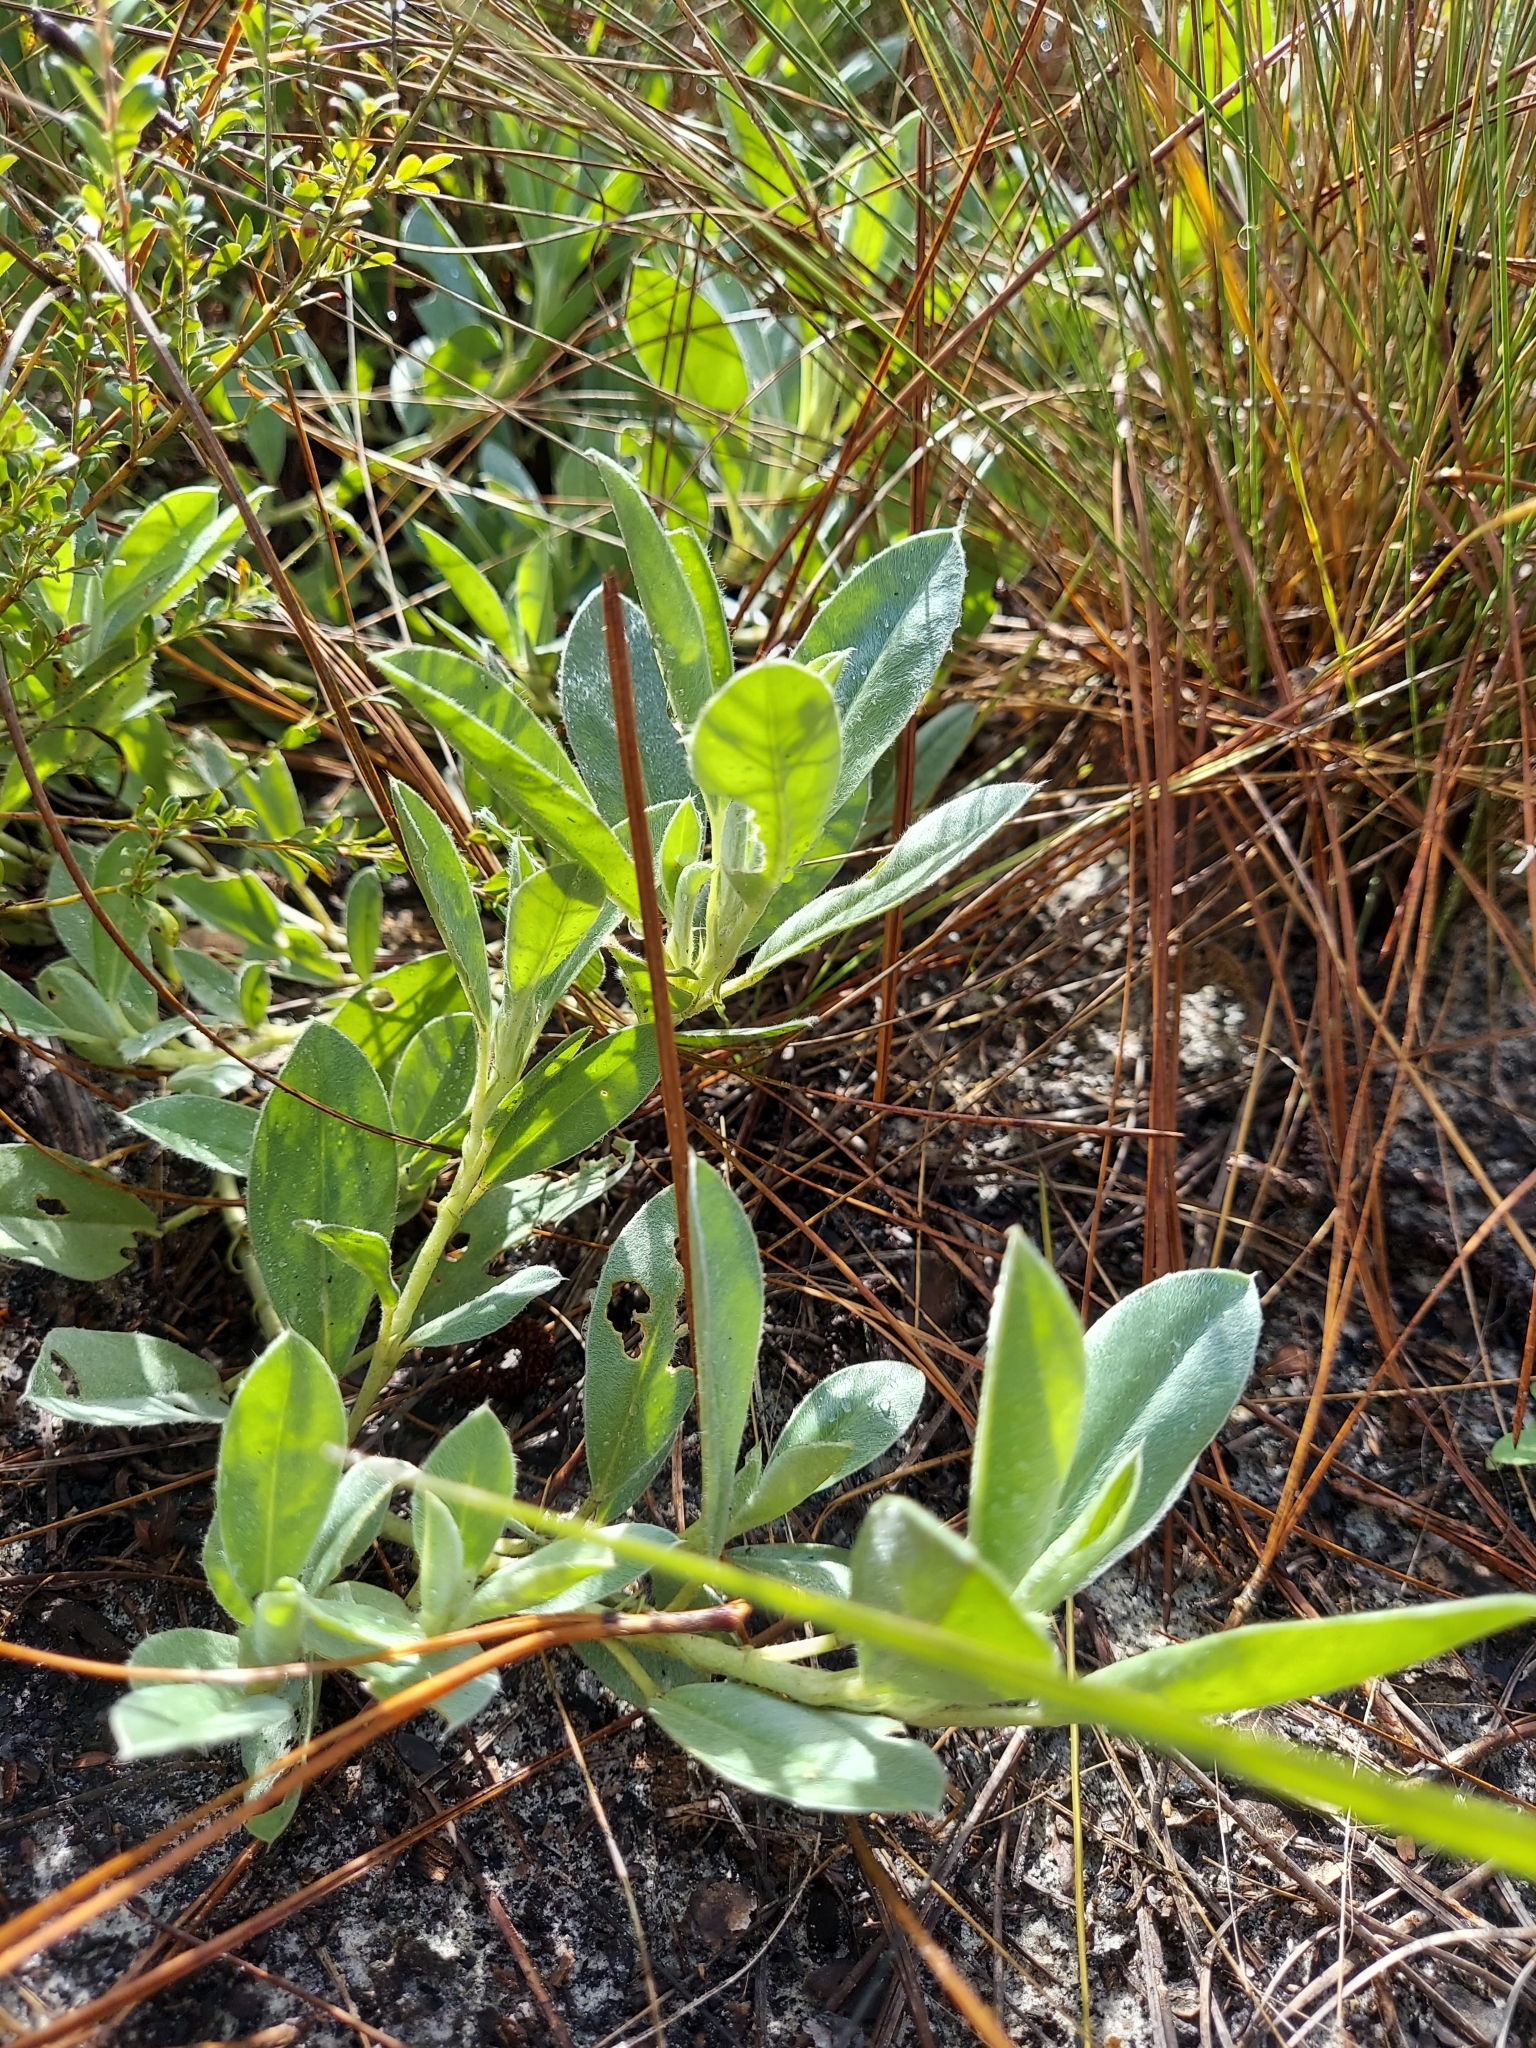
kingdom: Plantae
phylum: Tracheophyta
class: Magnoliopsida
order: Fabales
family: Fabaceae
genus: Lupinus
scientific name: Lupinus
